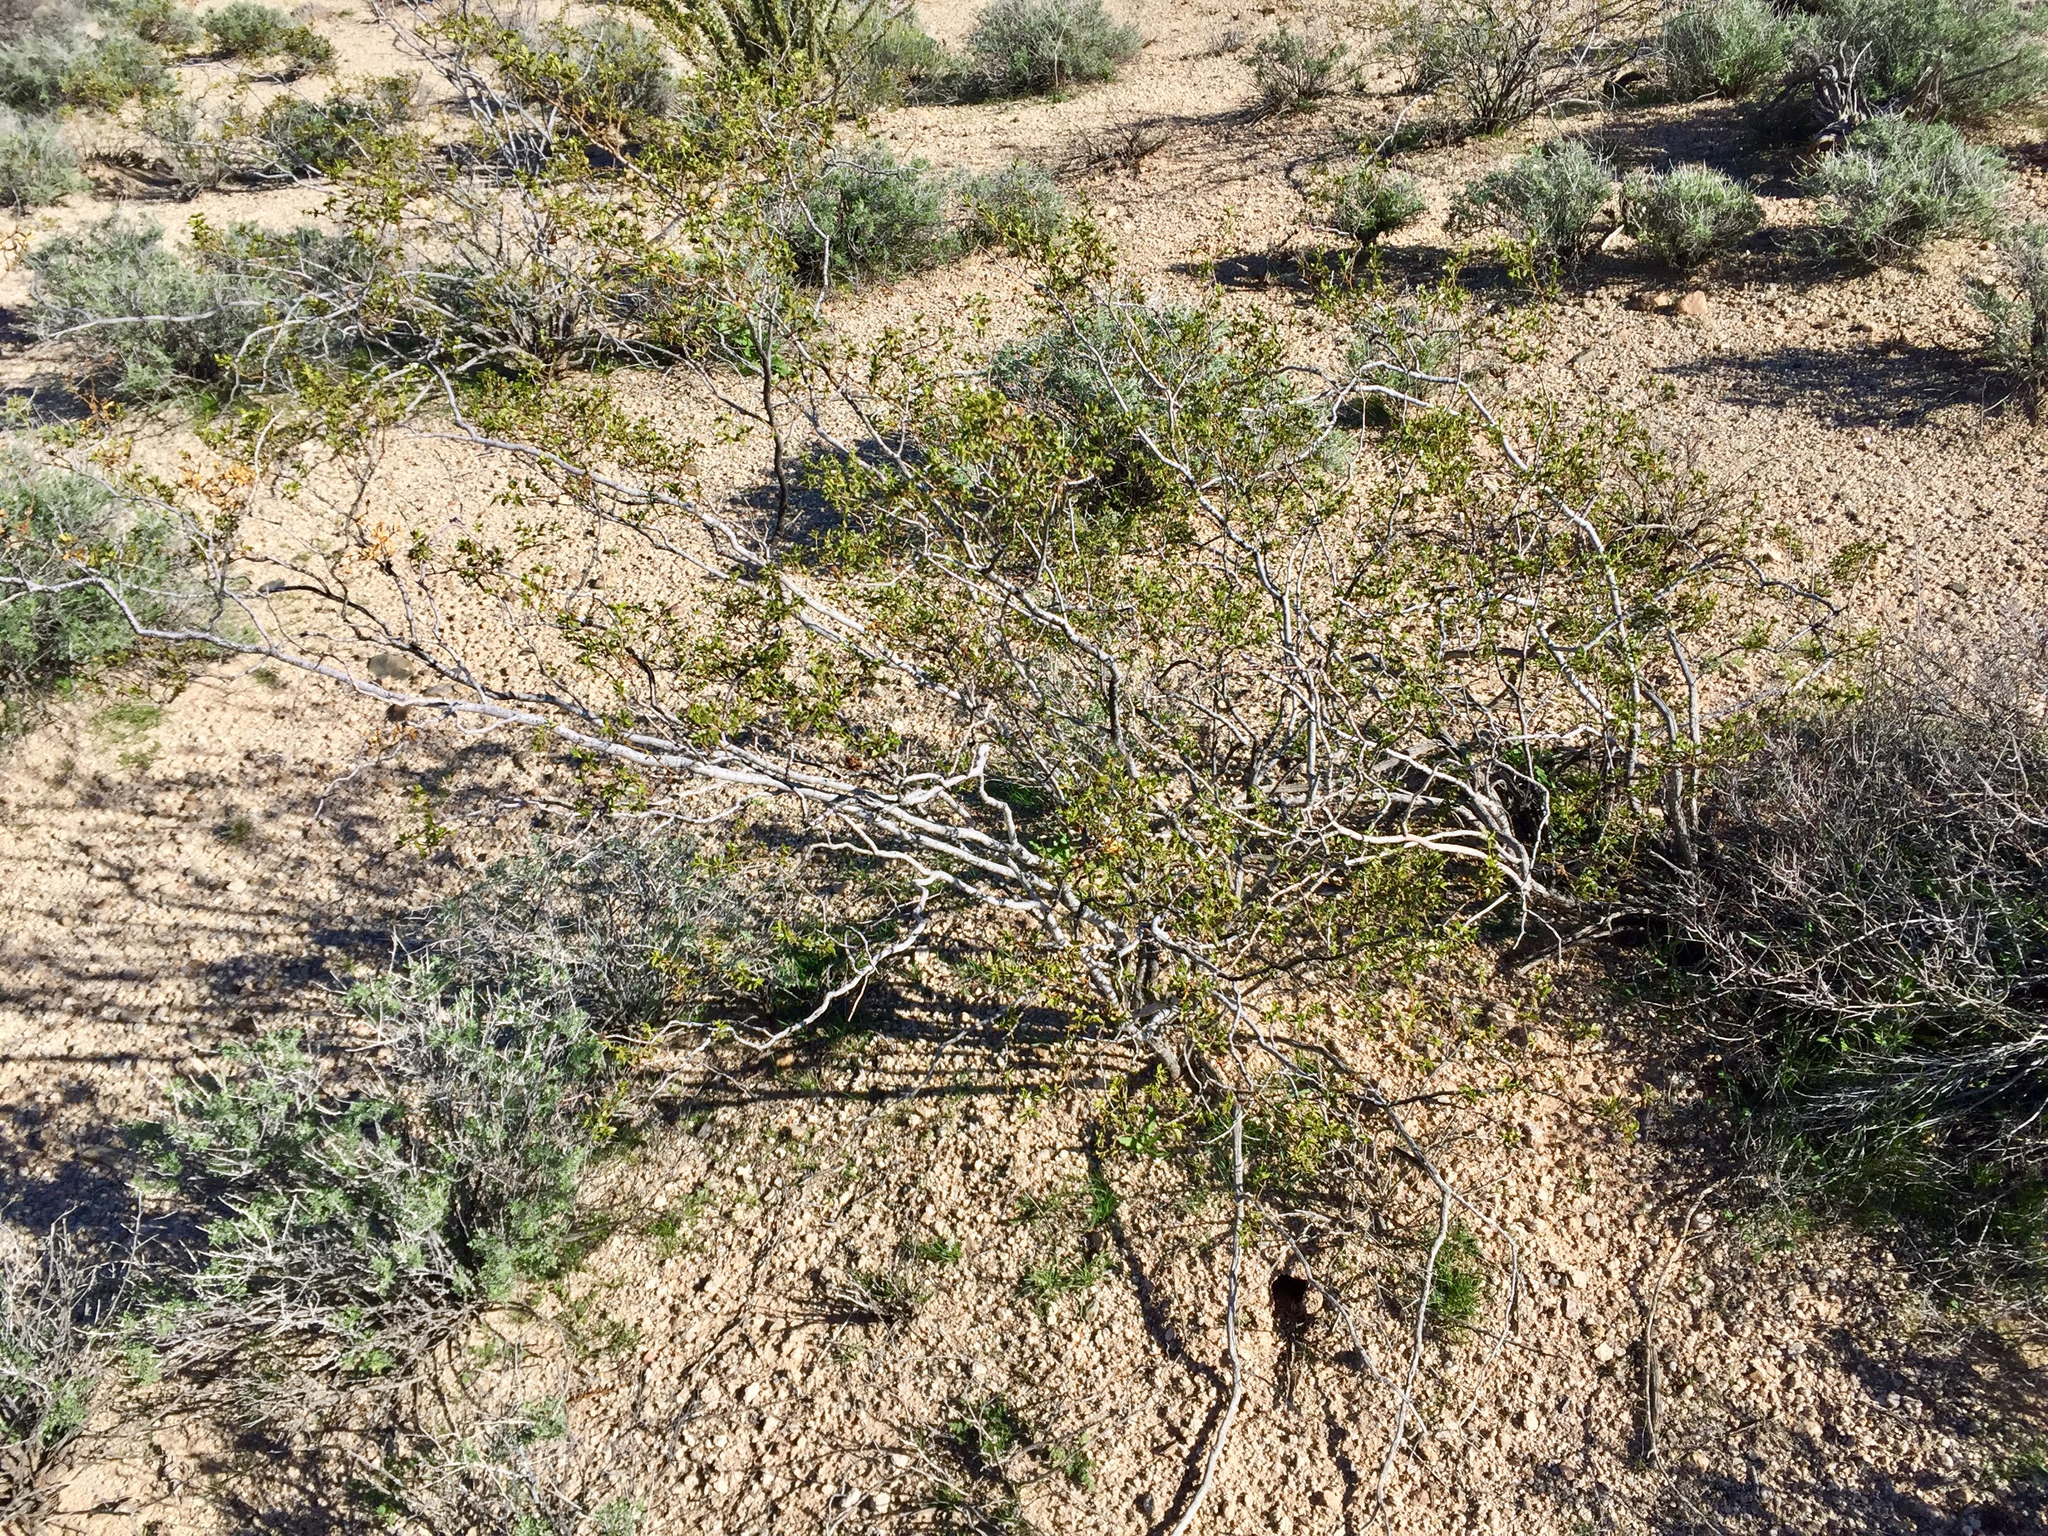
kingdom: Plantae
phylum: Tracheophyta
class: Magnoliopsida
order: Zygophyllales
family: Zygophyllaceae
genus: Larrea
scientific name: Larrea tridentata
